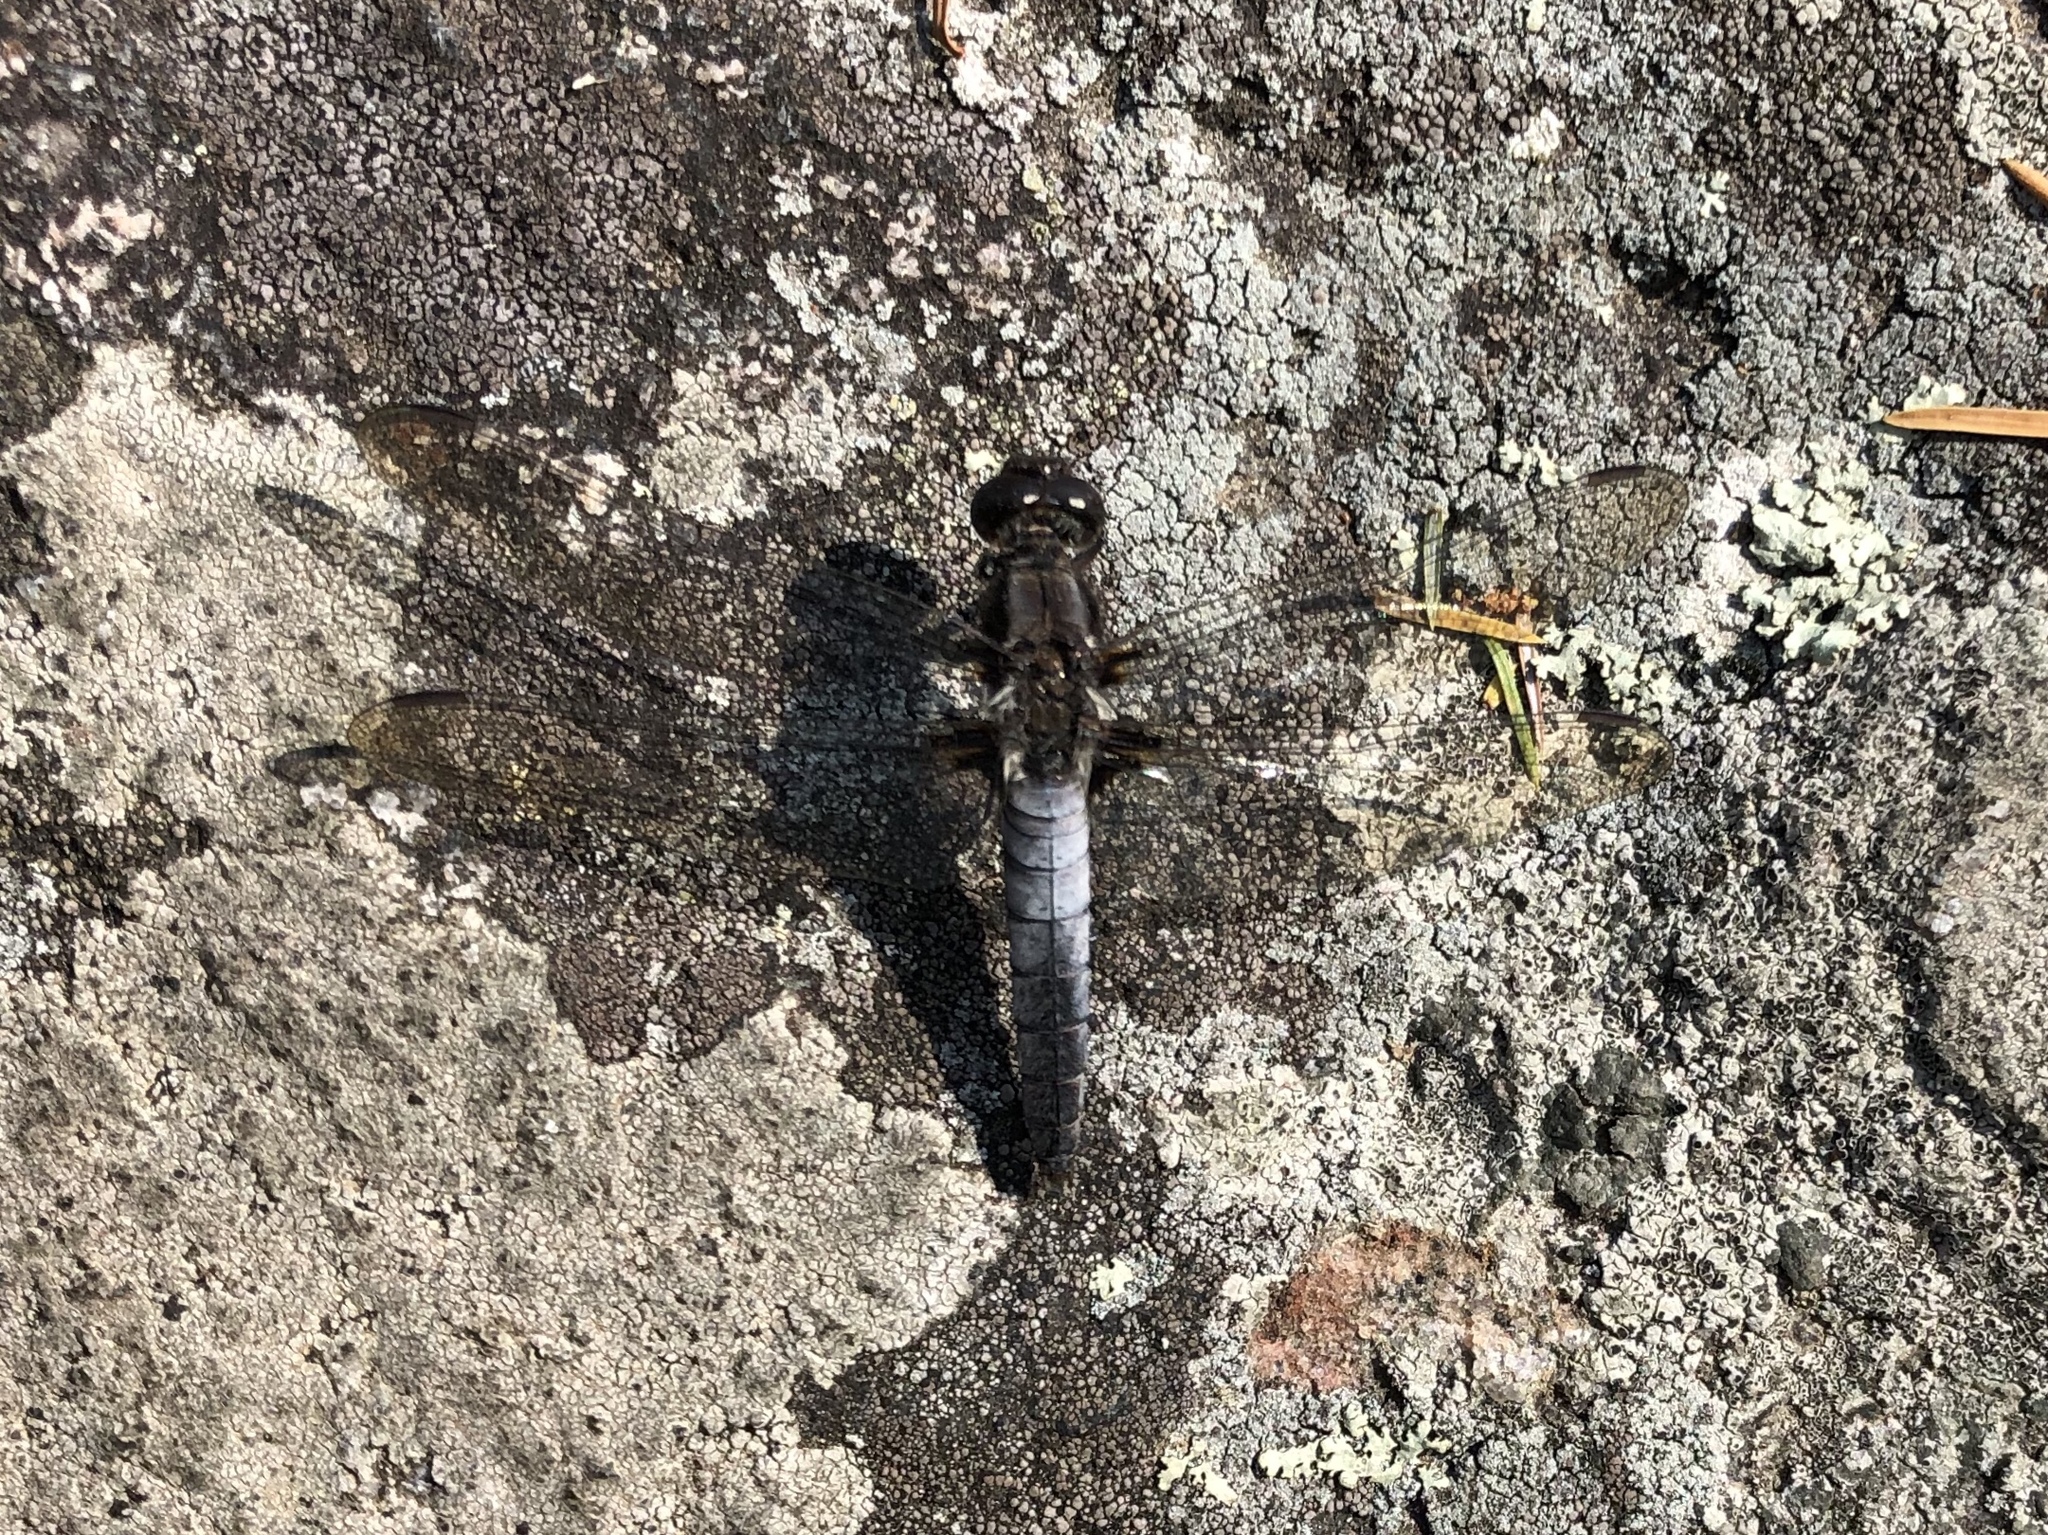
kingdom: Animalia
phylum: Arthropoda
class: Insecta
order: Odonata
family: Libellulidae
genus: Ladona
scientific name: Ladona julia
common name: Chalk-fronted corporal
